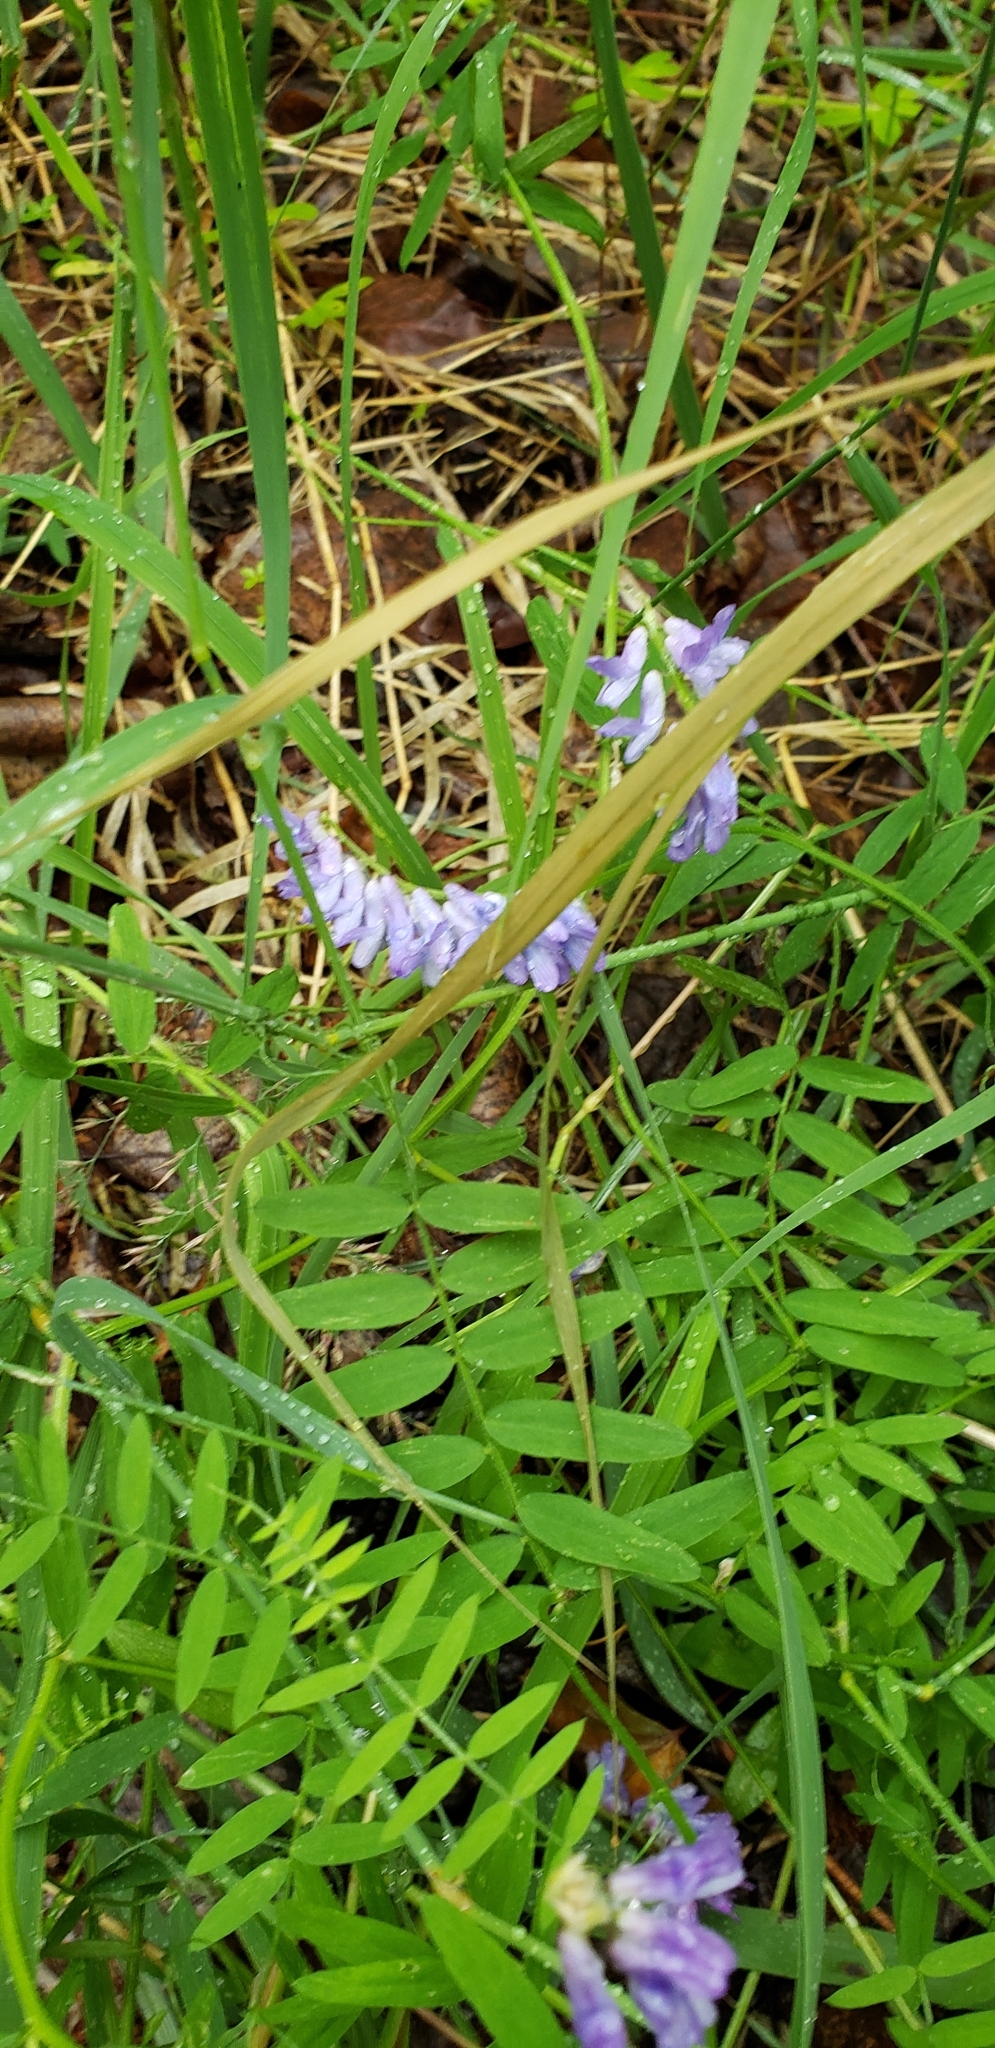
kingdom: Plantae
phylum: Tracheophyta
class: Magnoliopsida
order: Fabales
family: Fabaceae
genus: Vicia
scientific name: Vicia cracca
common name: Bird vetch
